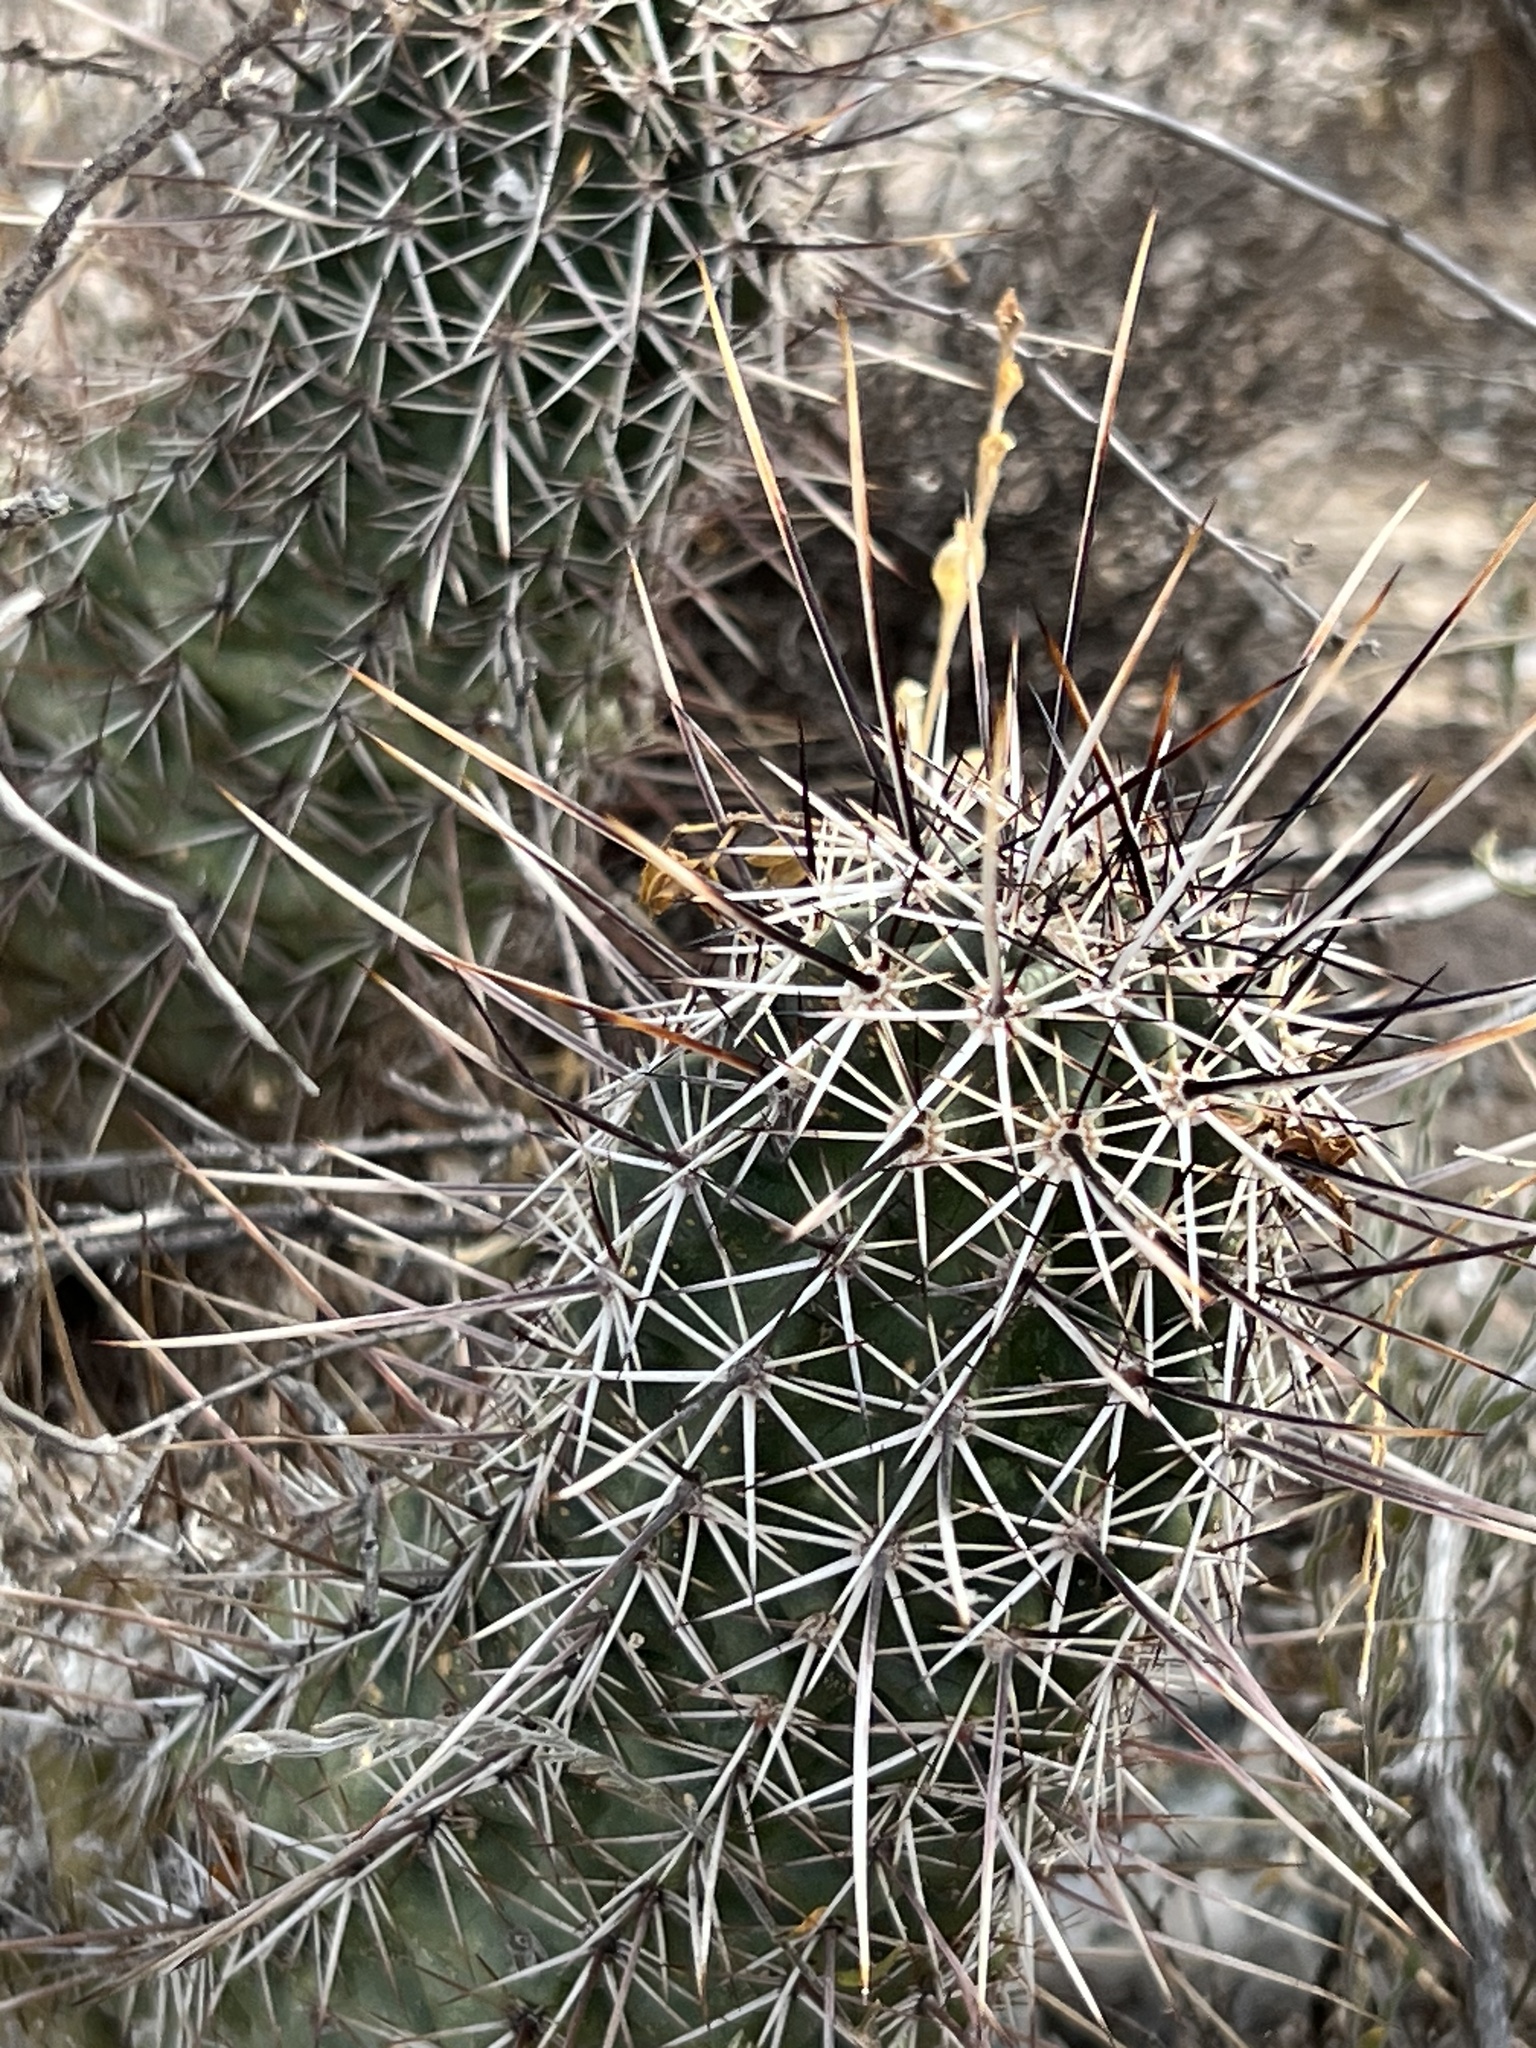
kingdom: Plantae
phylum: Tracheophyta
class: Magnoliopsida
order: Caryophyllales
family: Cactaceae
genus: Echinocereus
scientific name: Echinocereus fasciculatus
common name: Bundle hedgehog
